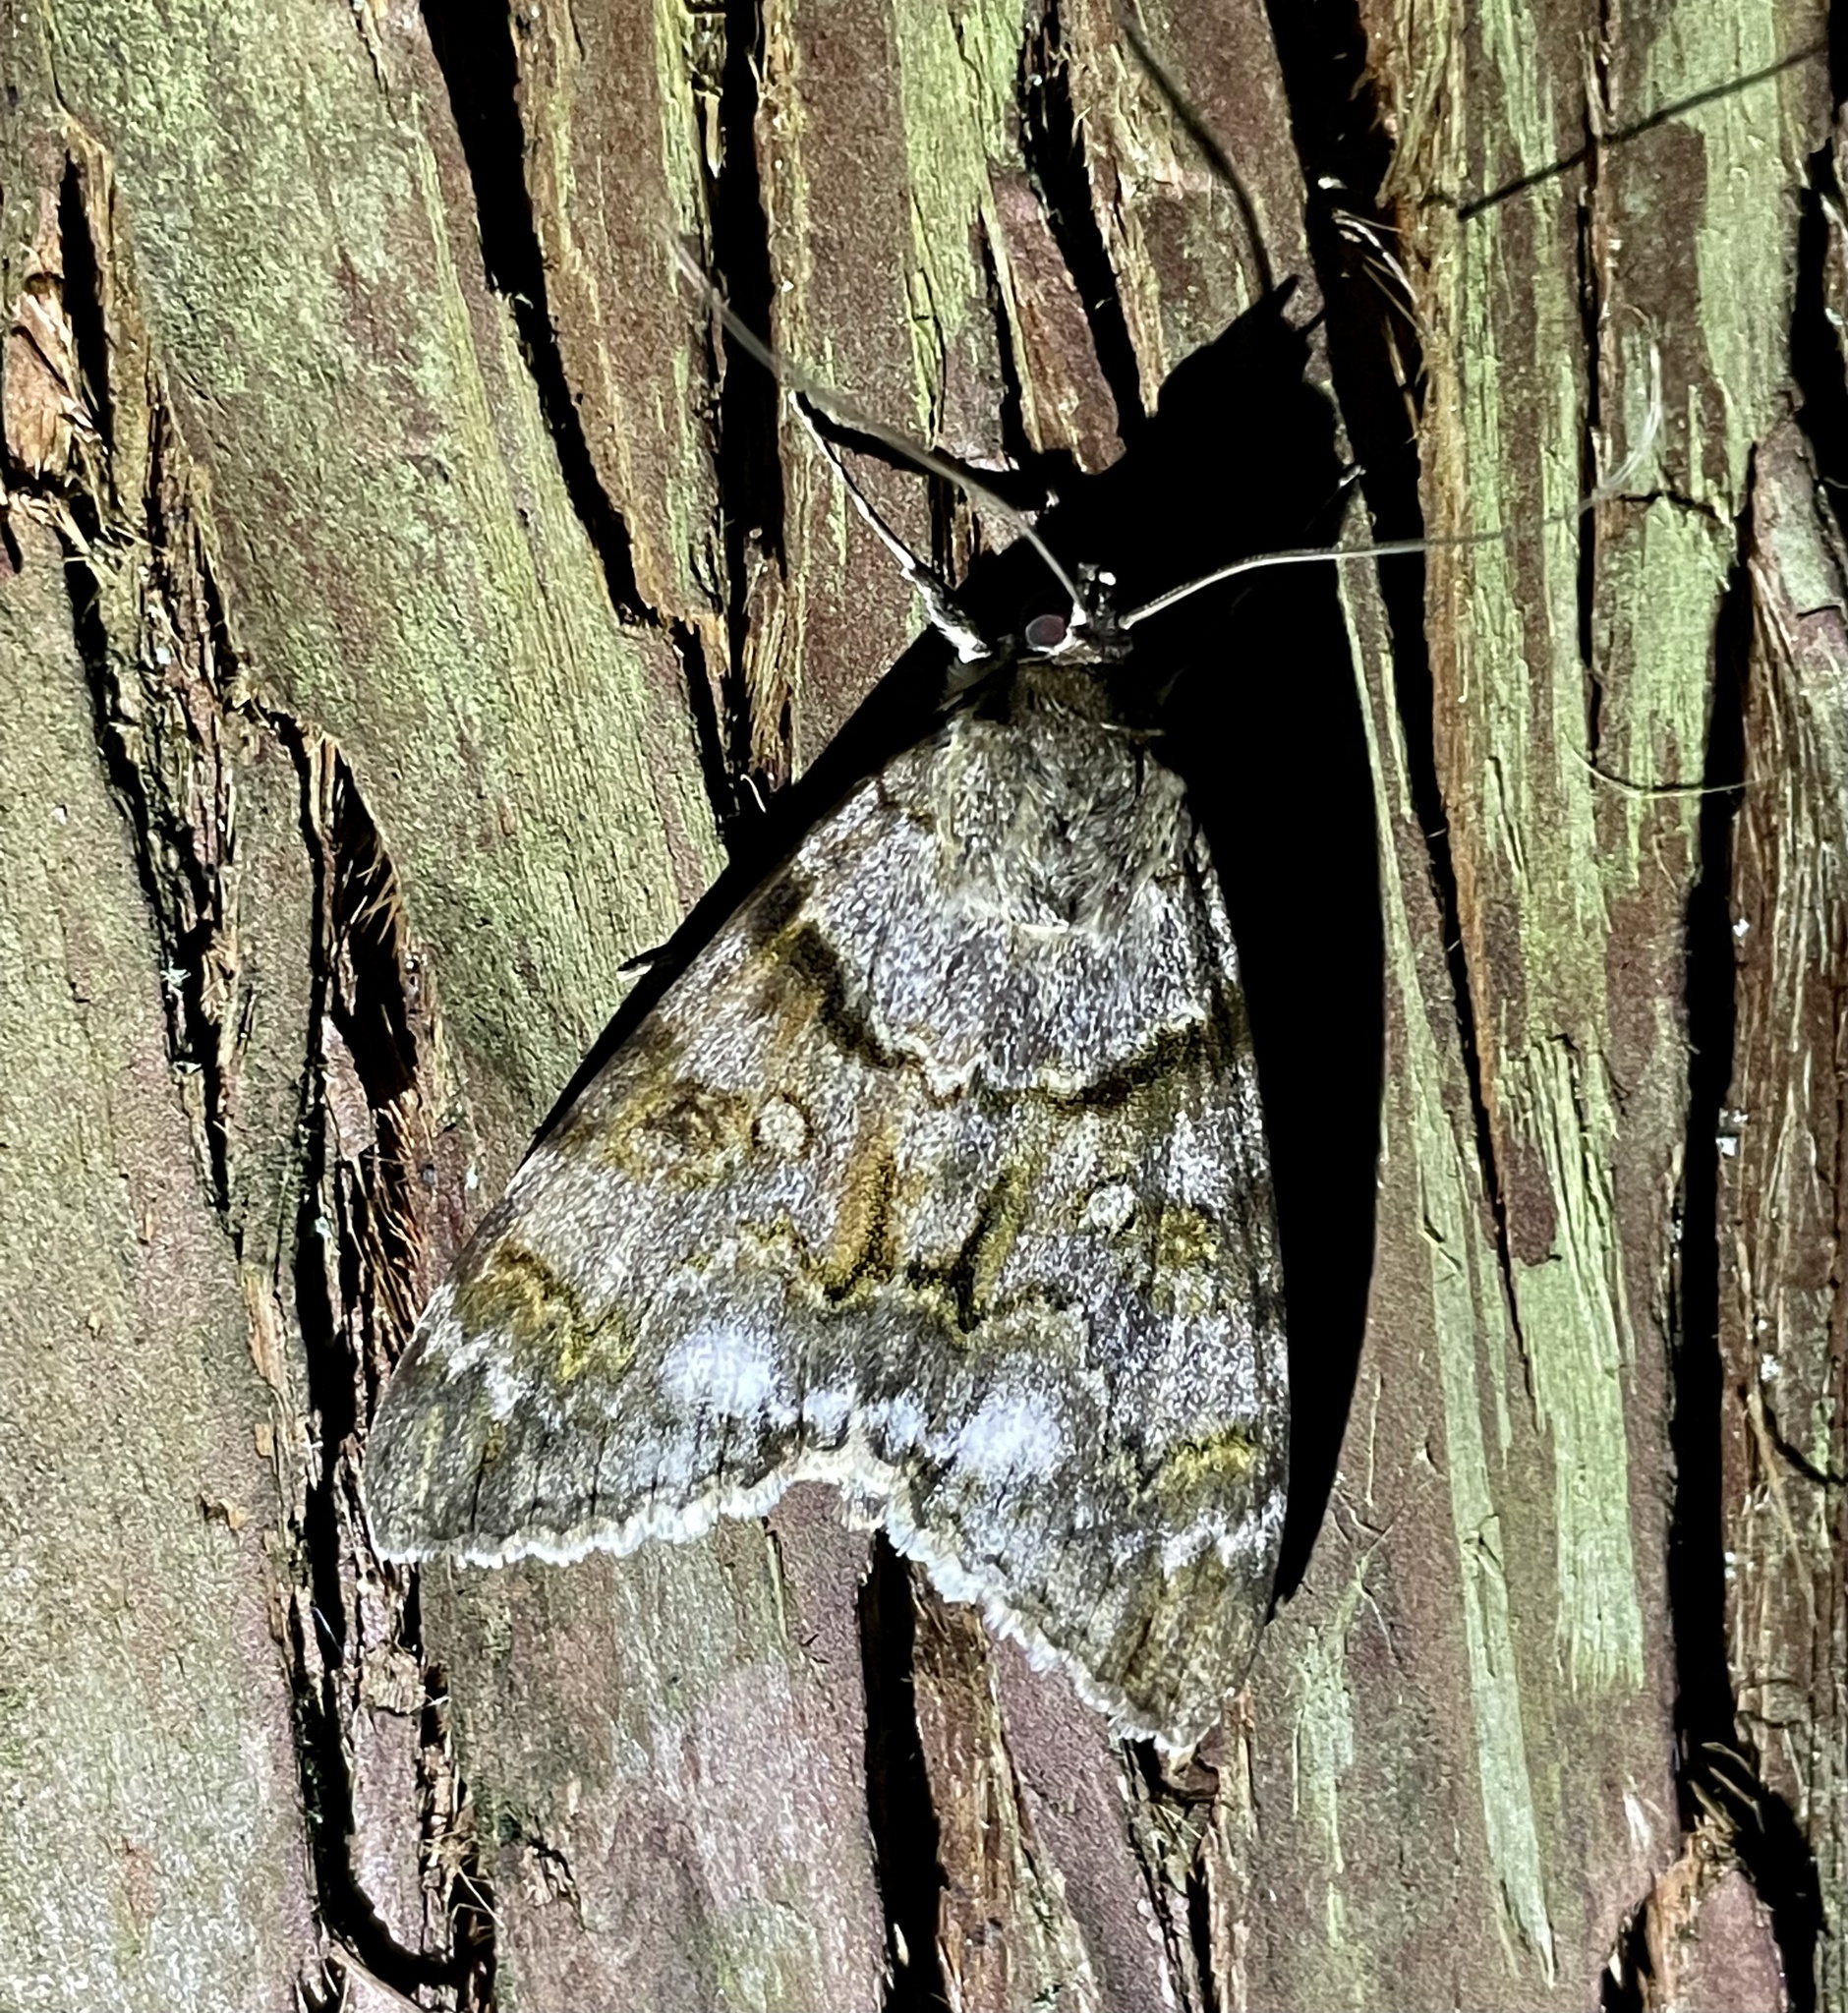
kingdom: Animalia
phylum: Arthropoda
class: Insecta
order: Lepidoptera
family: Erebidae
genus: Catocala
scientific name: Catocala jonasii
